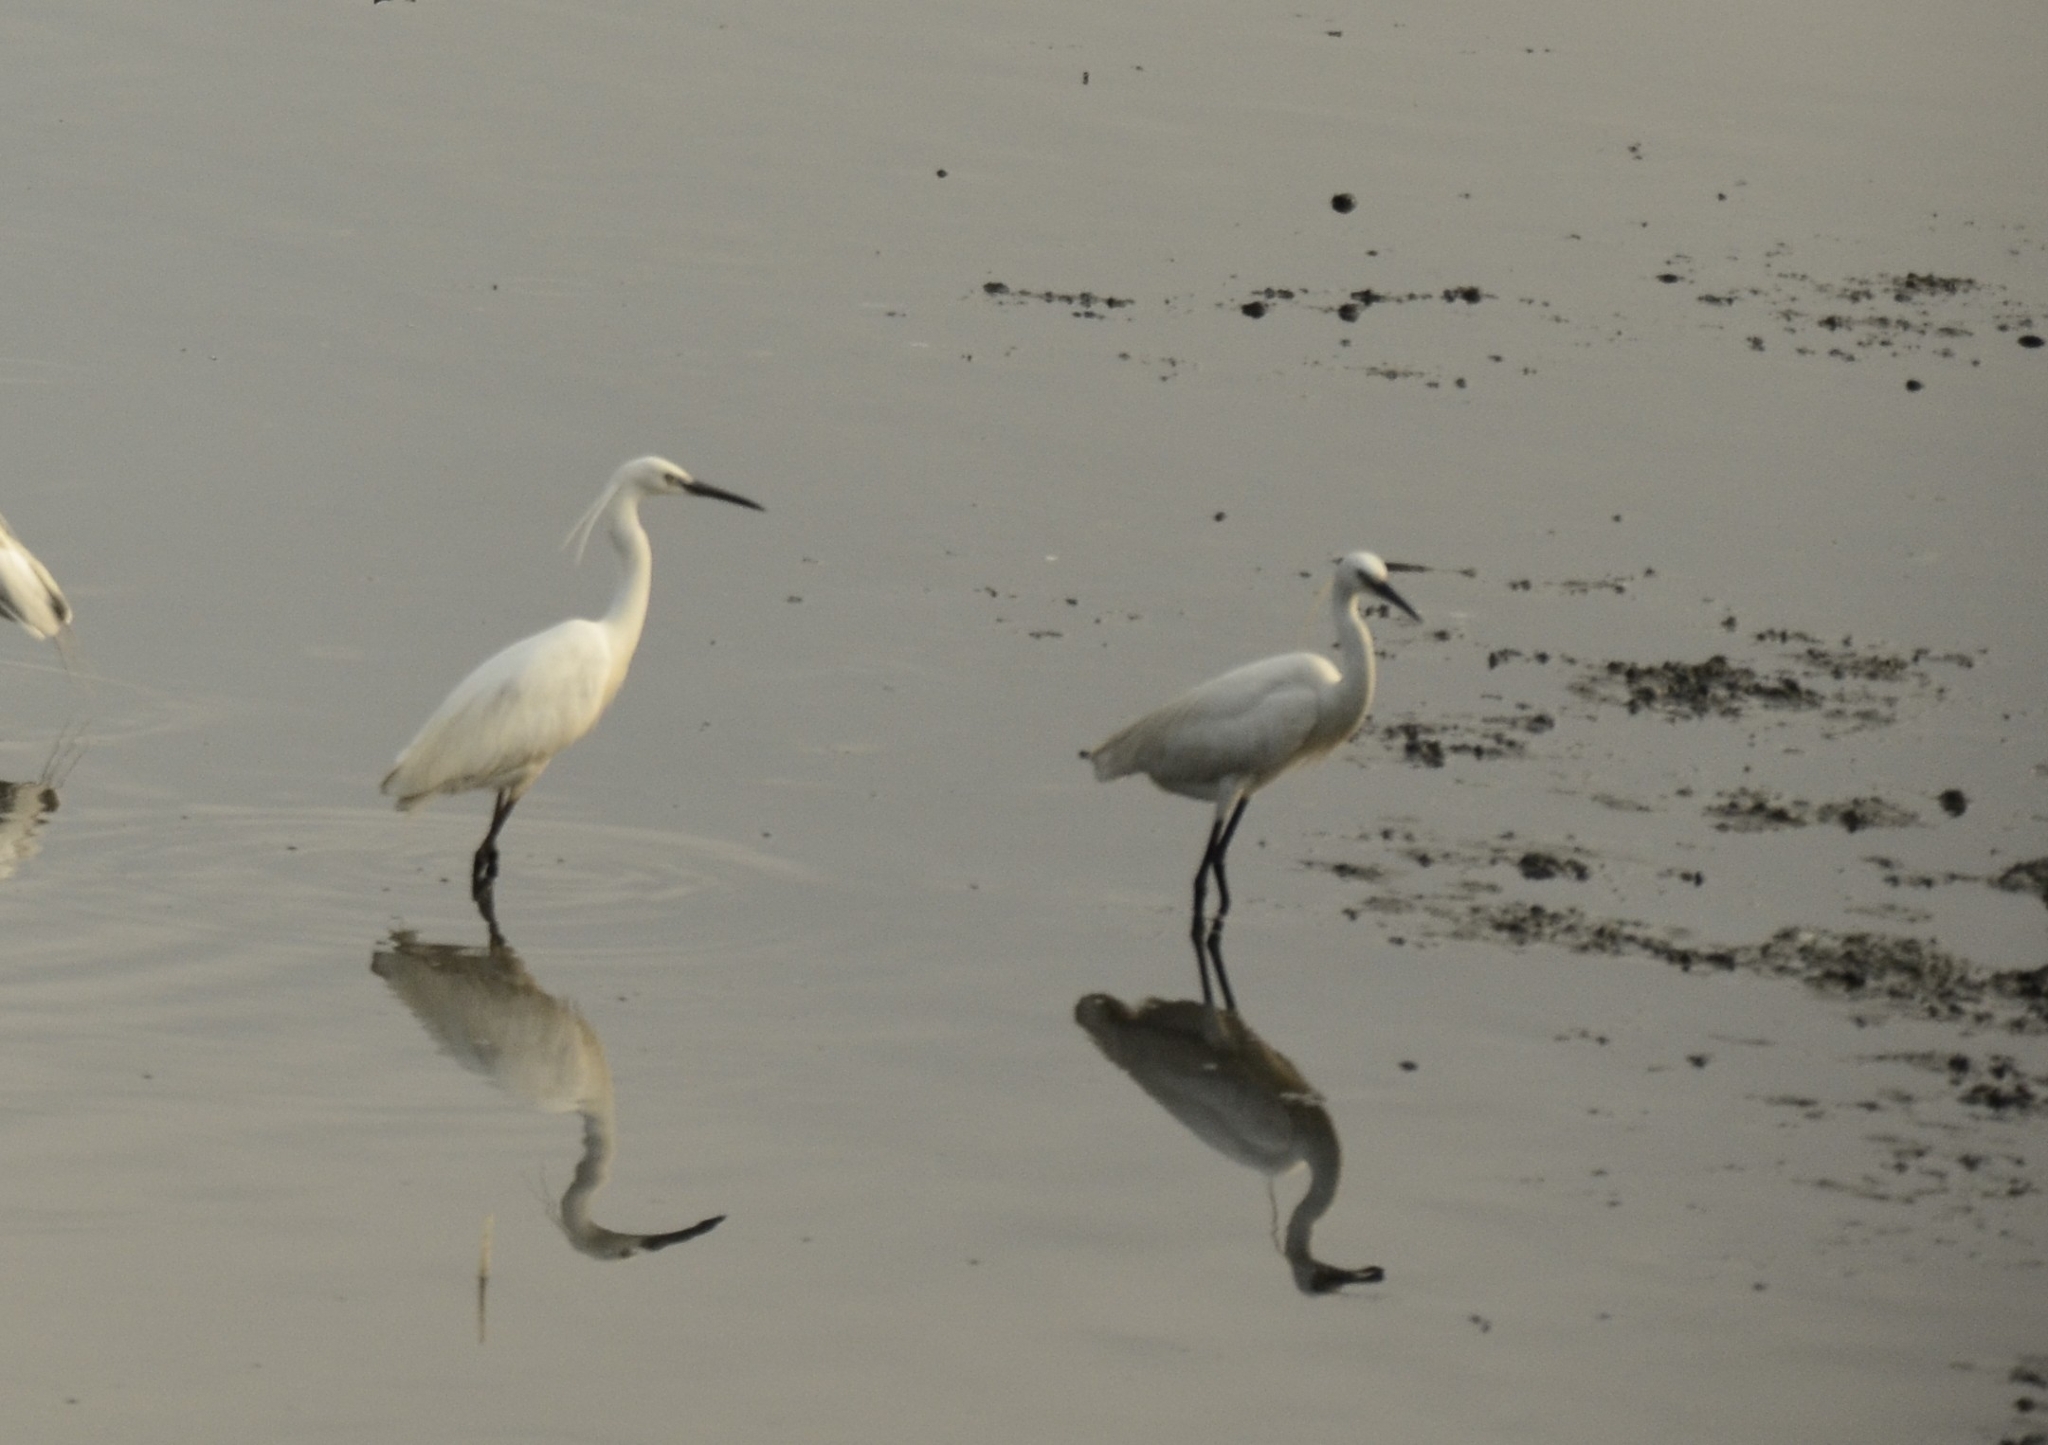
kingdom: Animalia
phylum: Chordata
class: Aves
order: Pelecaniformes
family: Ardeidae
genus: Egretta
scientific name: Egretta garzetta
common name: Little egret
